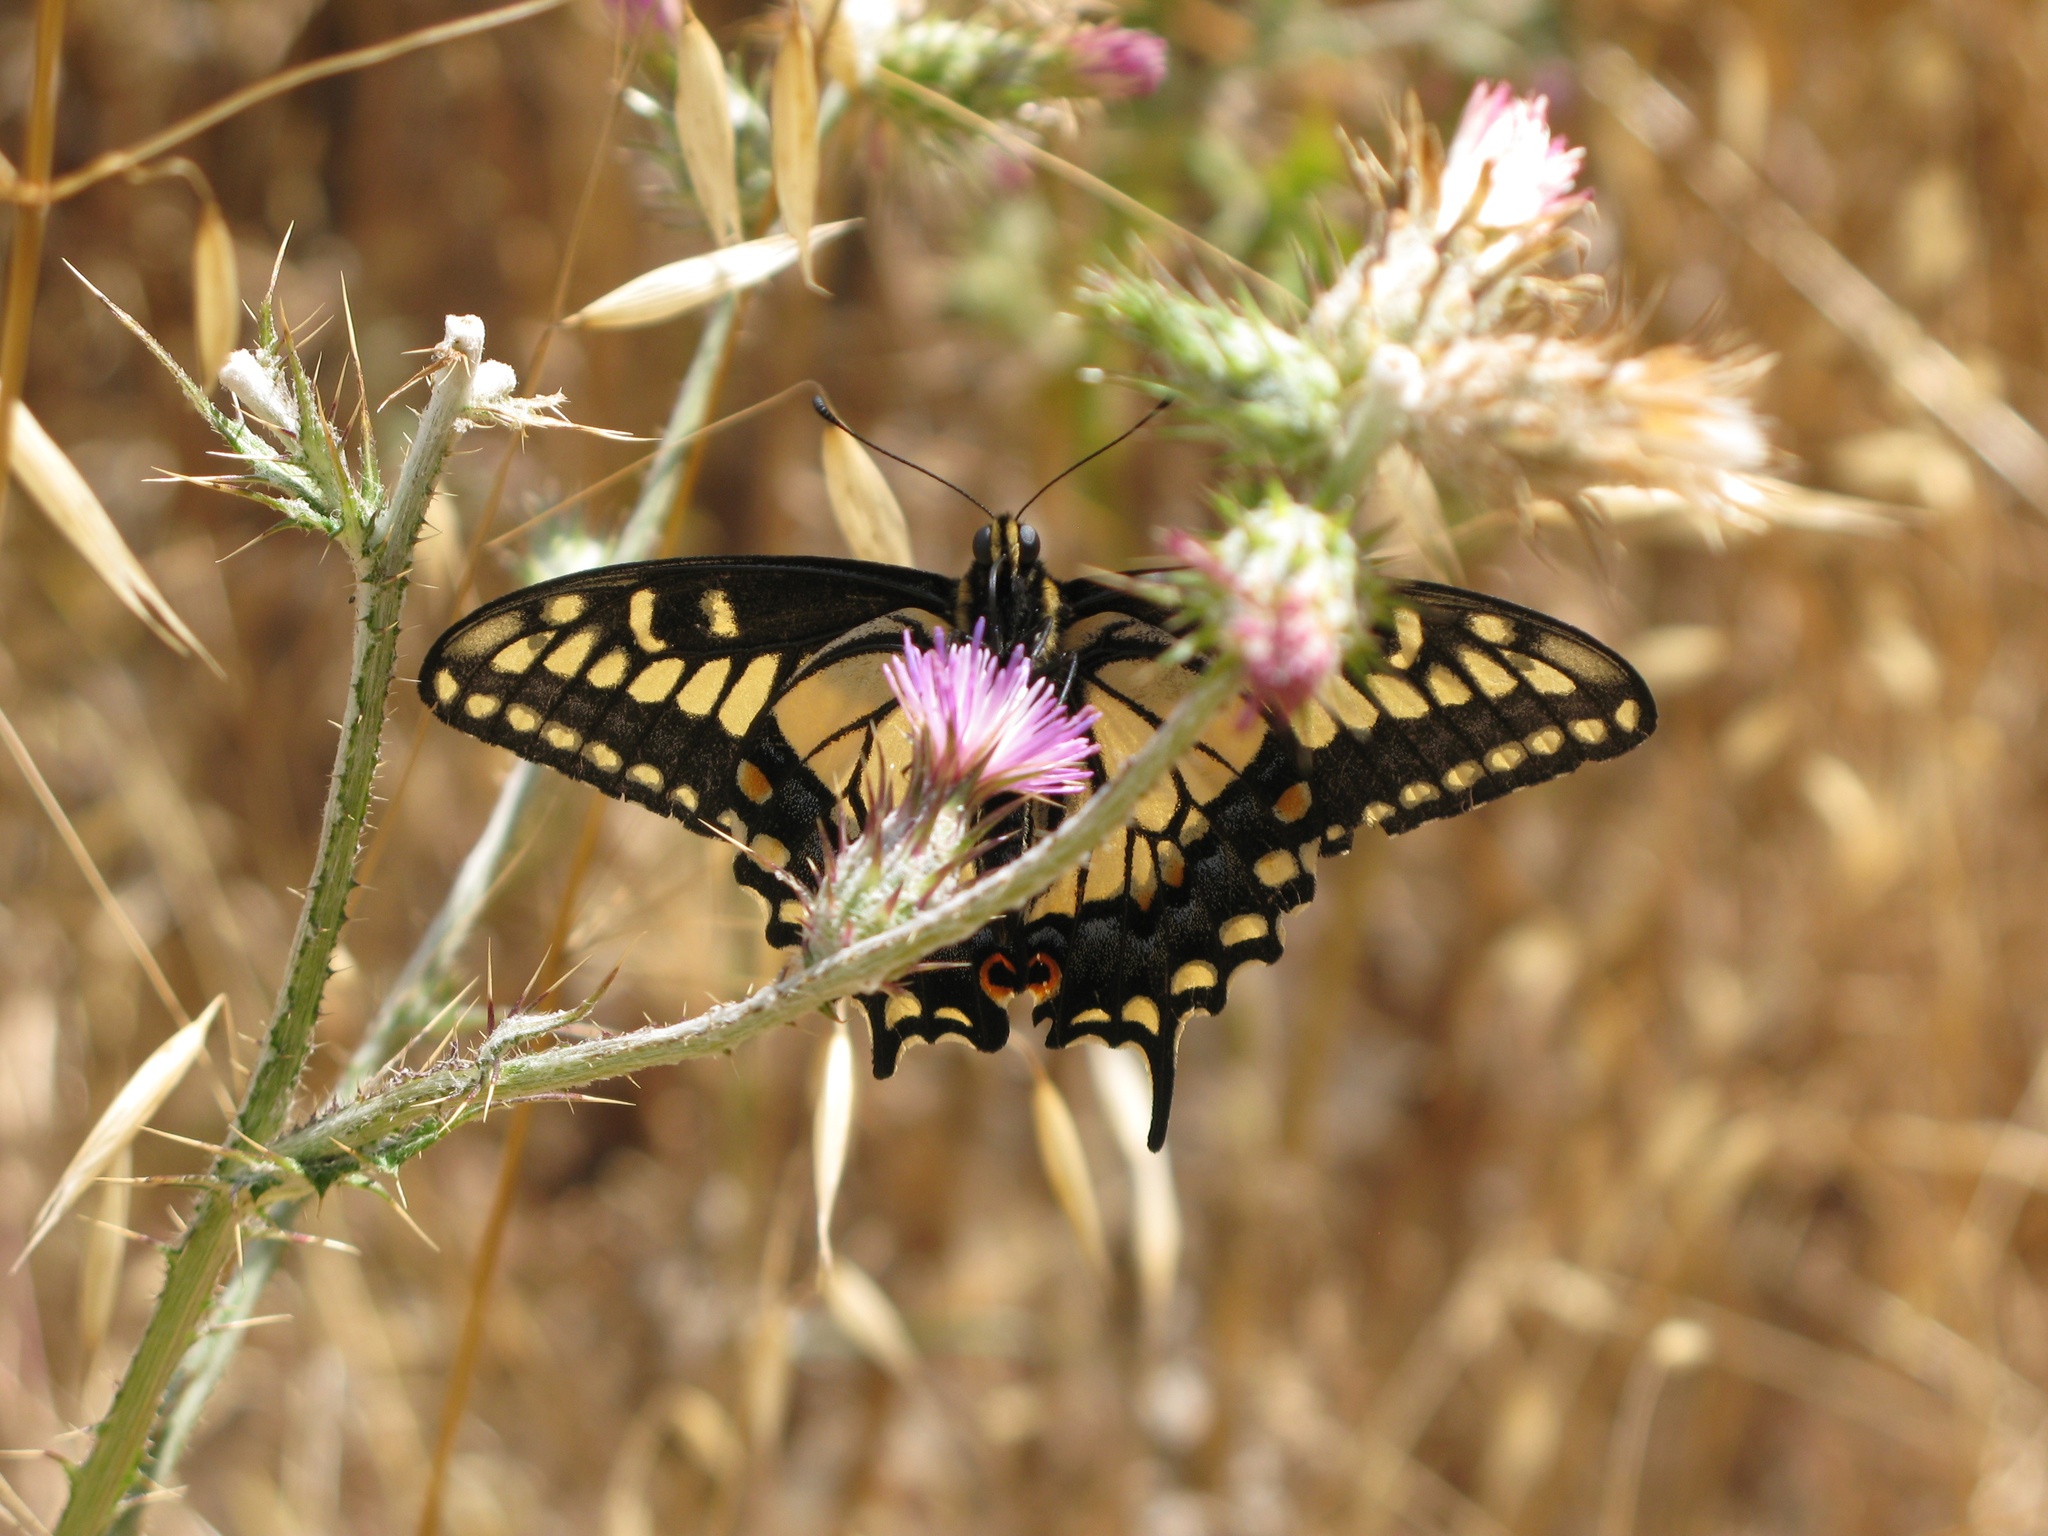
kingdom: Animalia
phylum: Arthropoda
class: Insecta
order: Lepidoptera
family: Papilionidae
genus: Papilio
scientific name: Papilio zelicaon
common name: Anise swallowtail
